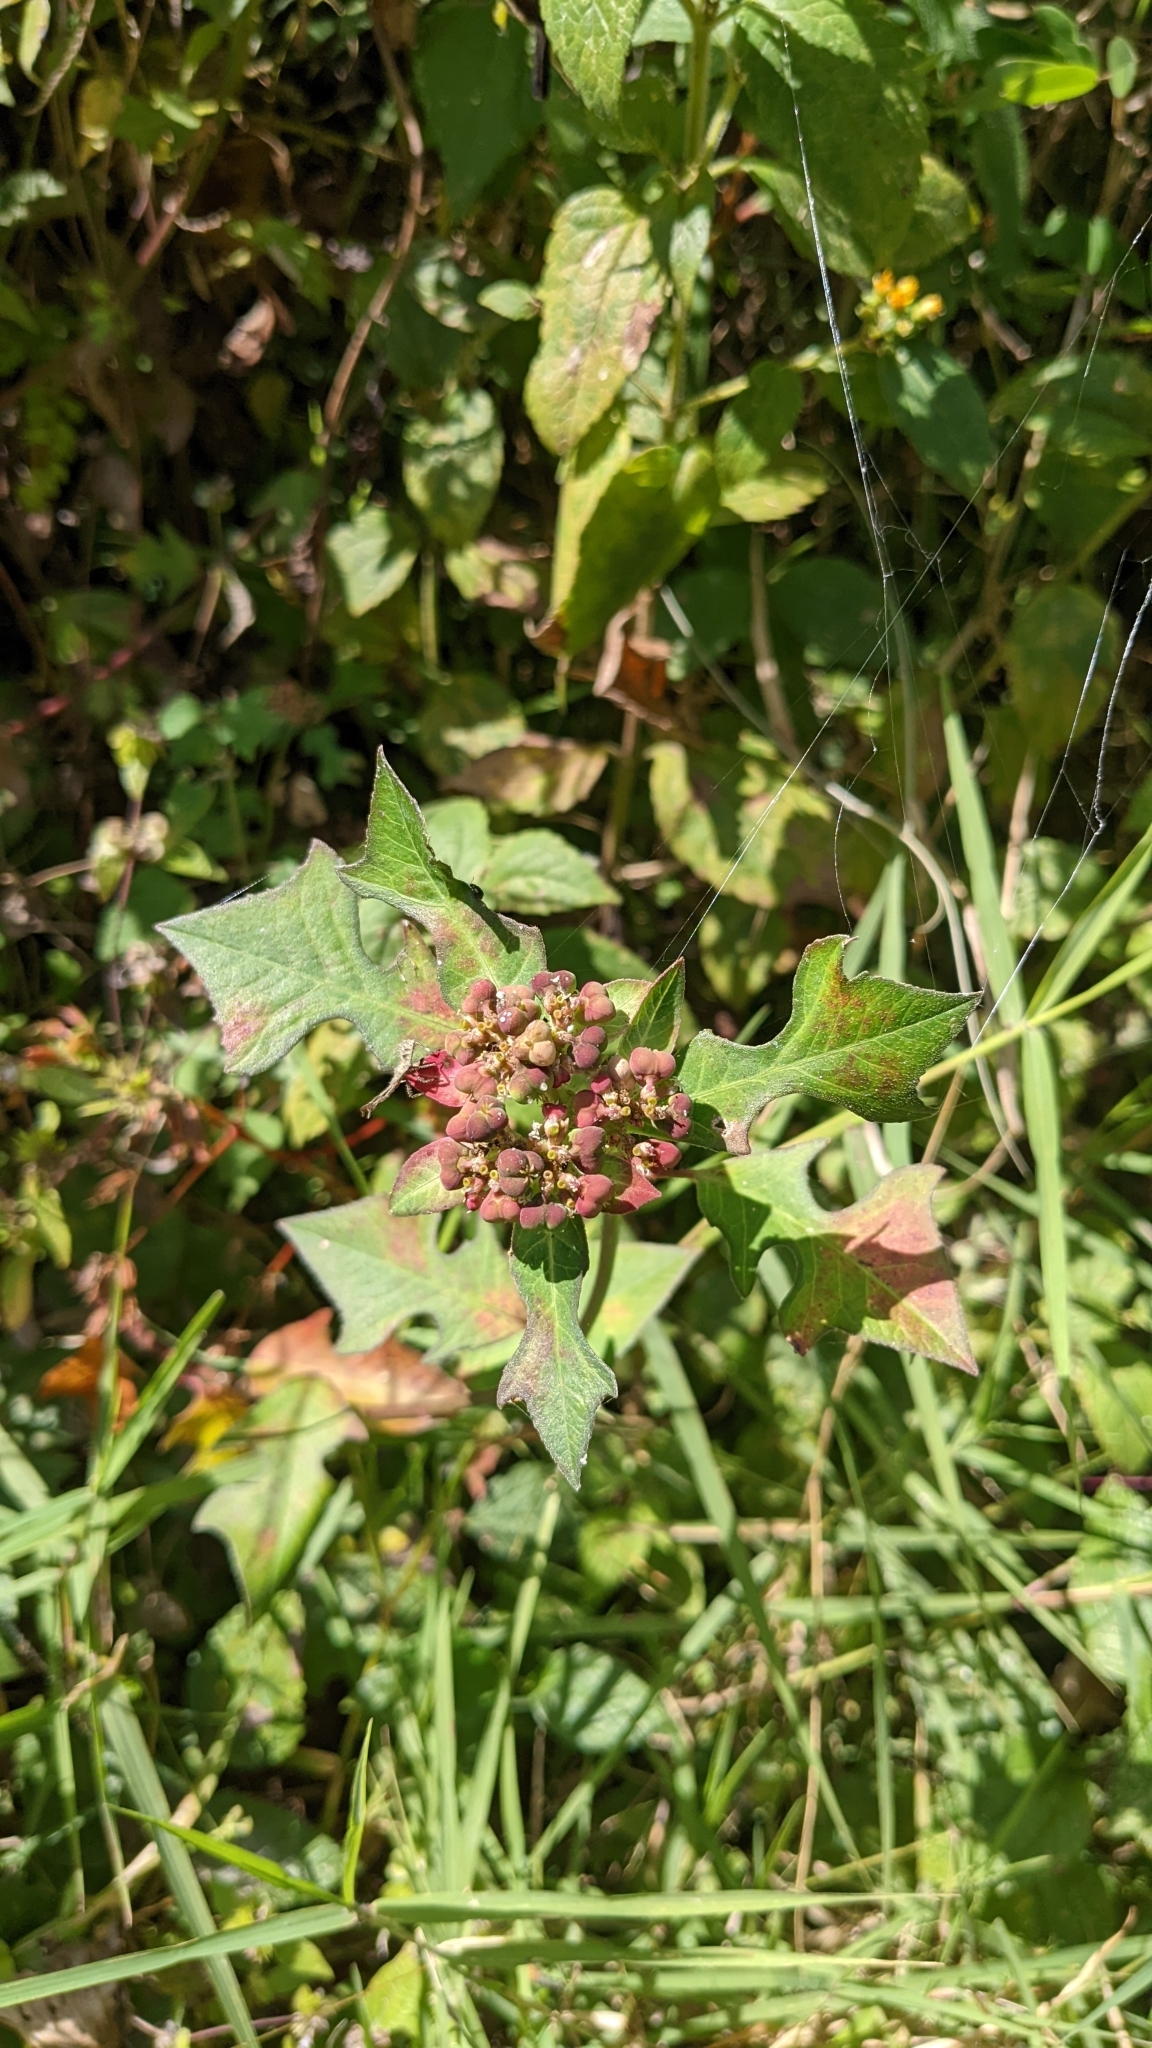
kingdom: Plantae
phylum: Tracheophyta
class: Magnoliopsida
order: Malpighiales
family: Euphorbiaceae
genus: Euphorbia
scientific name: Euphorbia heterophylla
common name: Mexican fireplant
